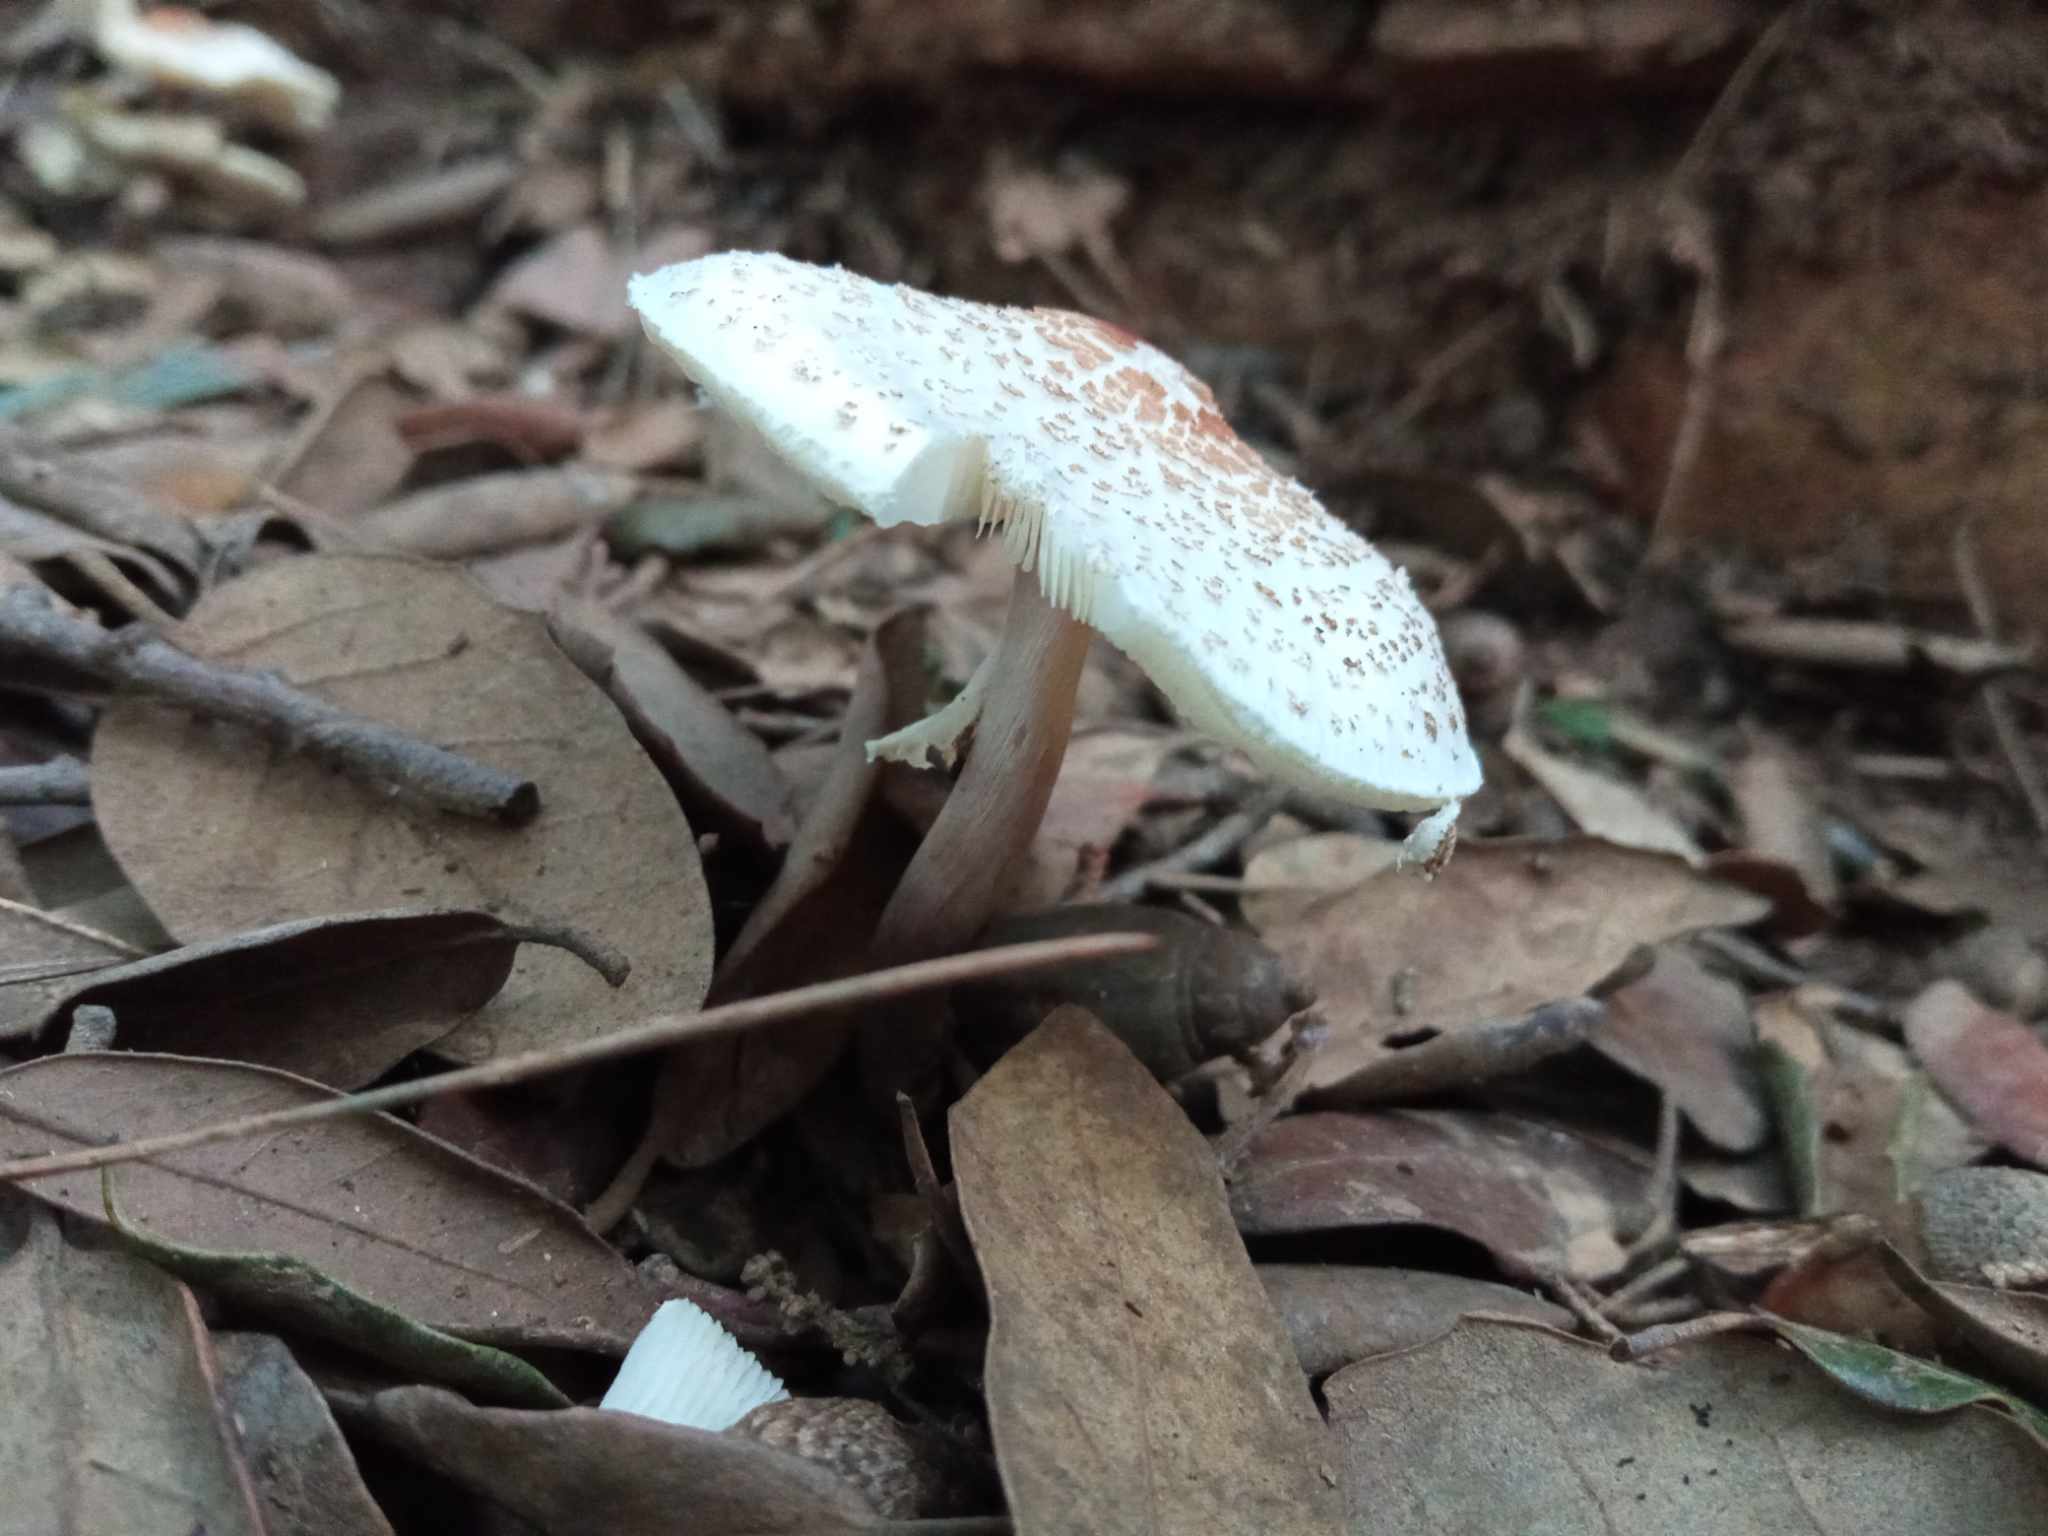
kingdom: Fungi
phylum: Basidiomycota
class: Agaricomycetes
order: Agaricales
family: Agaricaceae
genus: Lepiota
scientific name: Lepiota cristata
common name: Stinking dapperling
